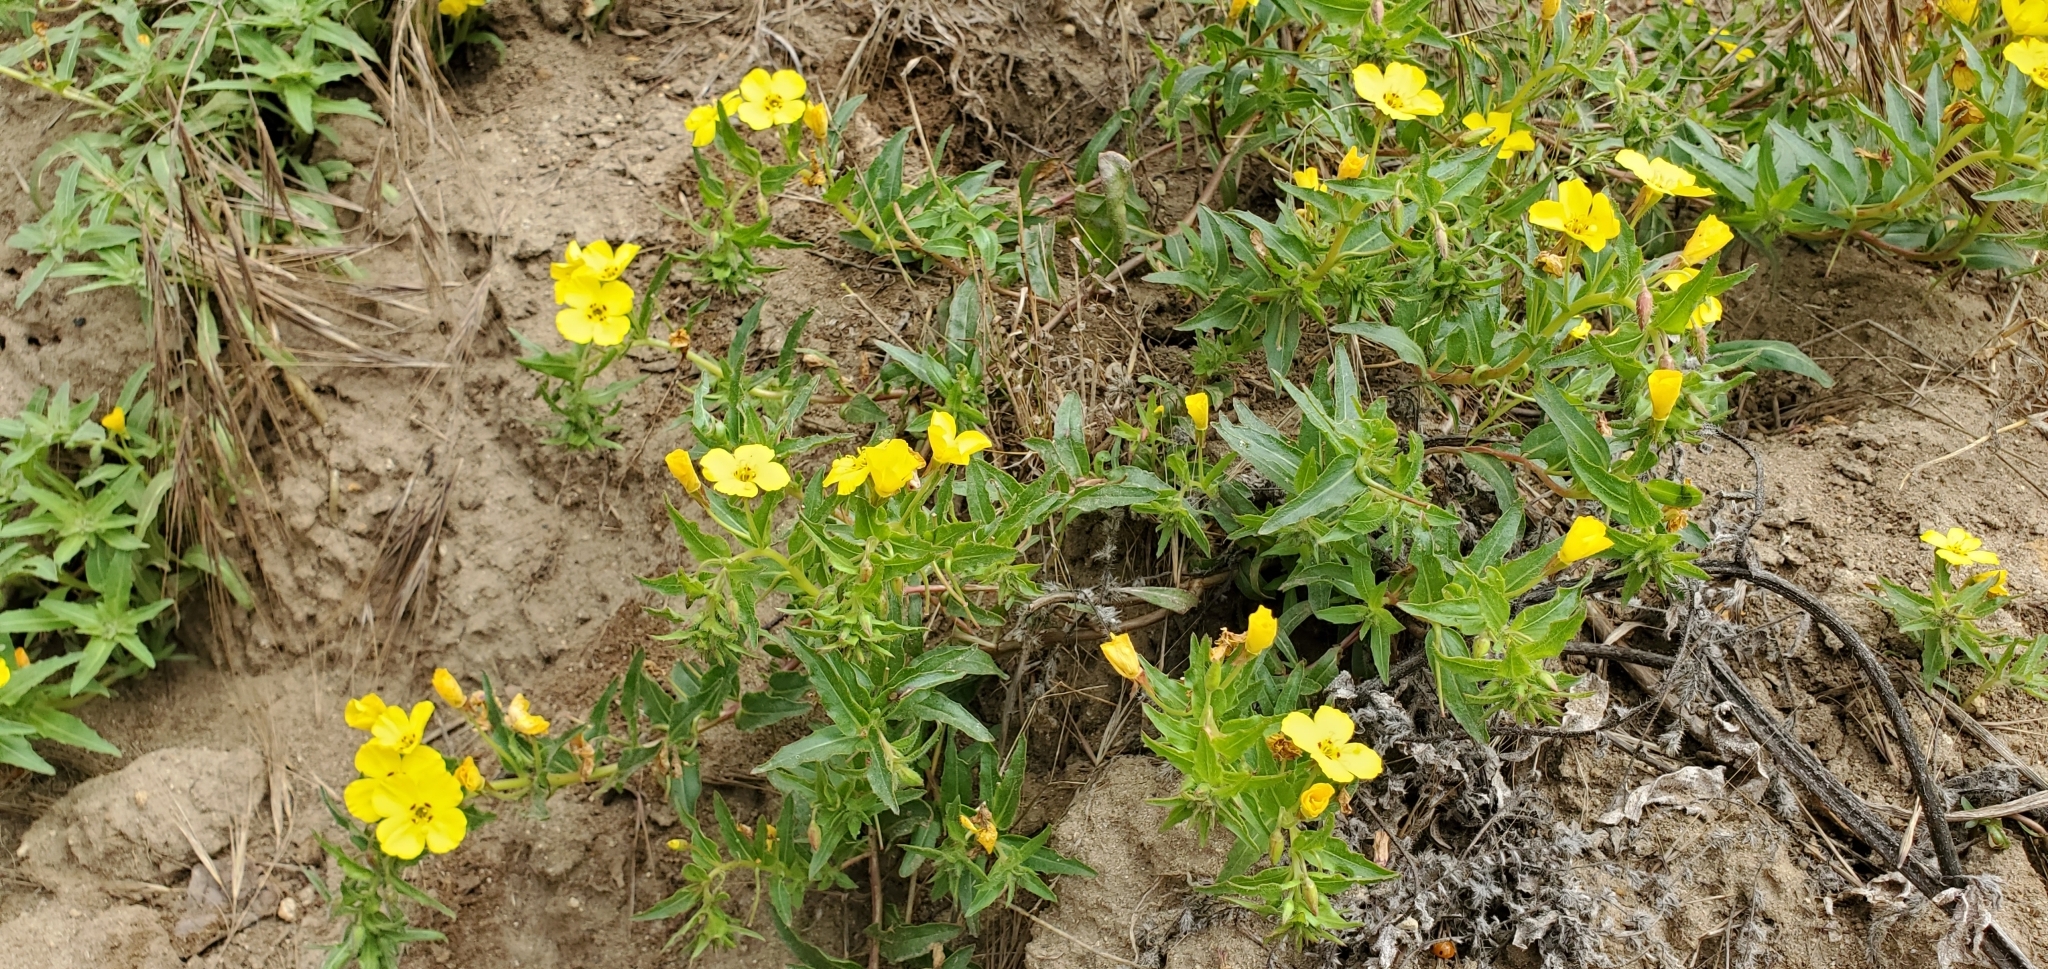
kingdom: Plantae
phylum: Tracheophyta
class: Magnoliopsida
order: Myrtales
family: Onagraceae
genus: Camissoniopsis
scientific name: Camissoniopsis bistorta
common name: Southern suncup
